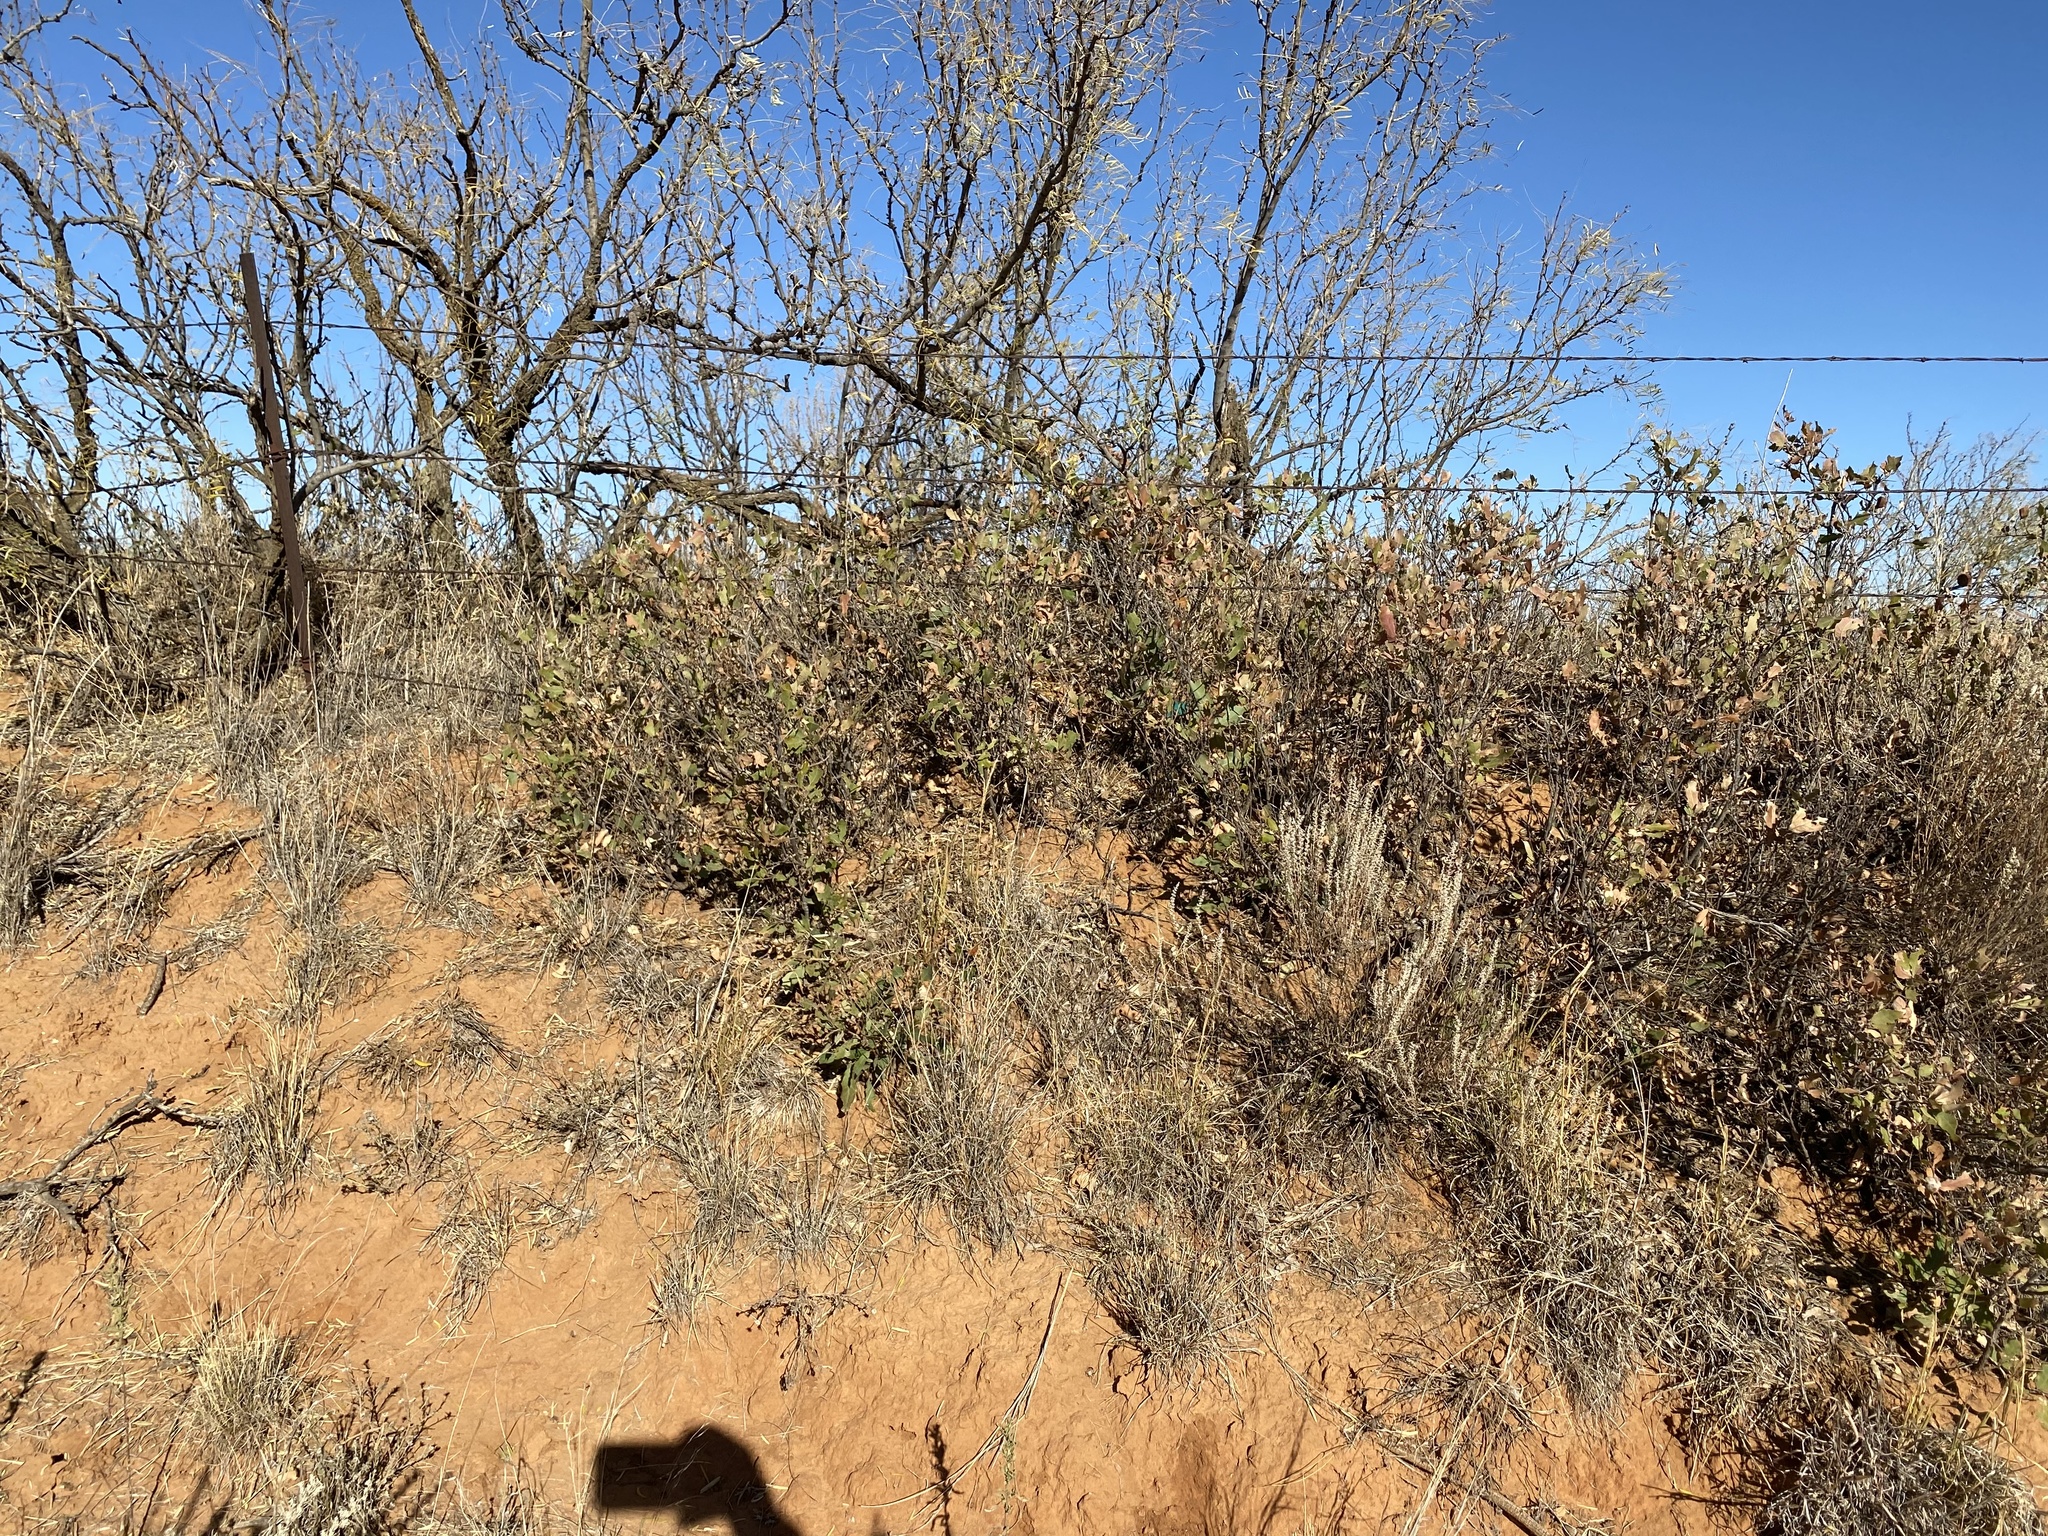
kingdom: Plantae
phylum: Tracheophyta
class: Magnoliopsida
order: Fagales
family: Fagaceae
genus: Quercus
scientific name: Quercus havardii
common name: Shinnery oak
